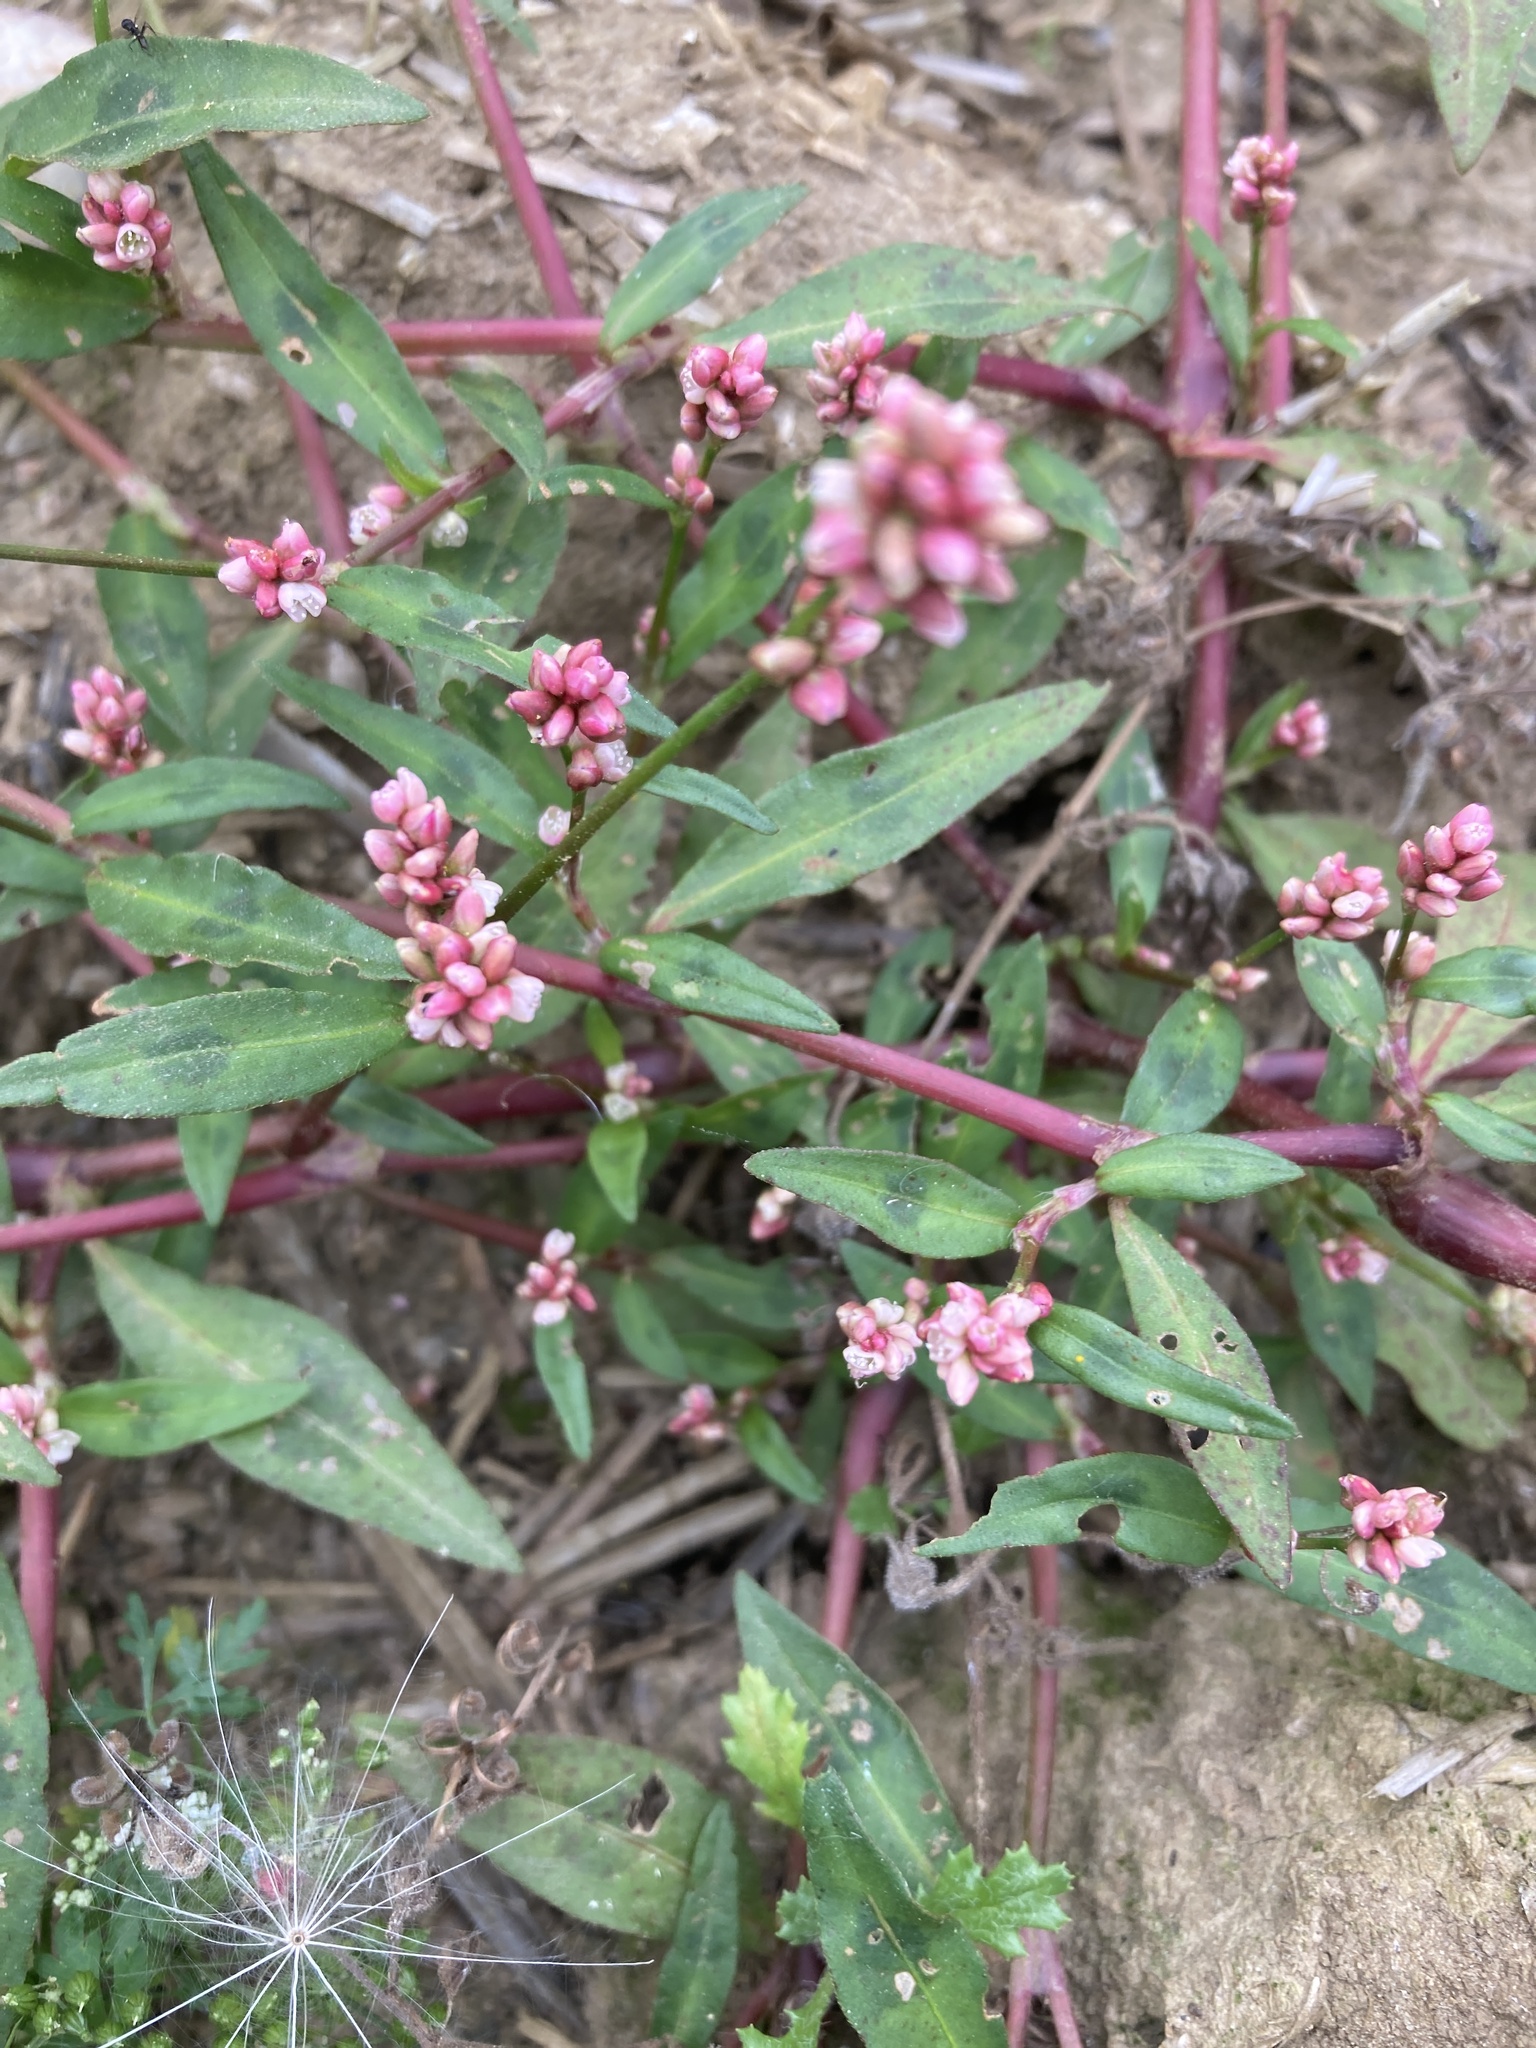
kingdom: Plantae
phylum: Tracheophyta
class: Magnoliopsida
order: Caryophyllales
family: Polygonaceae
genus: Persicaria
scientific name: Persicaria maculosa
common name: Redshank
